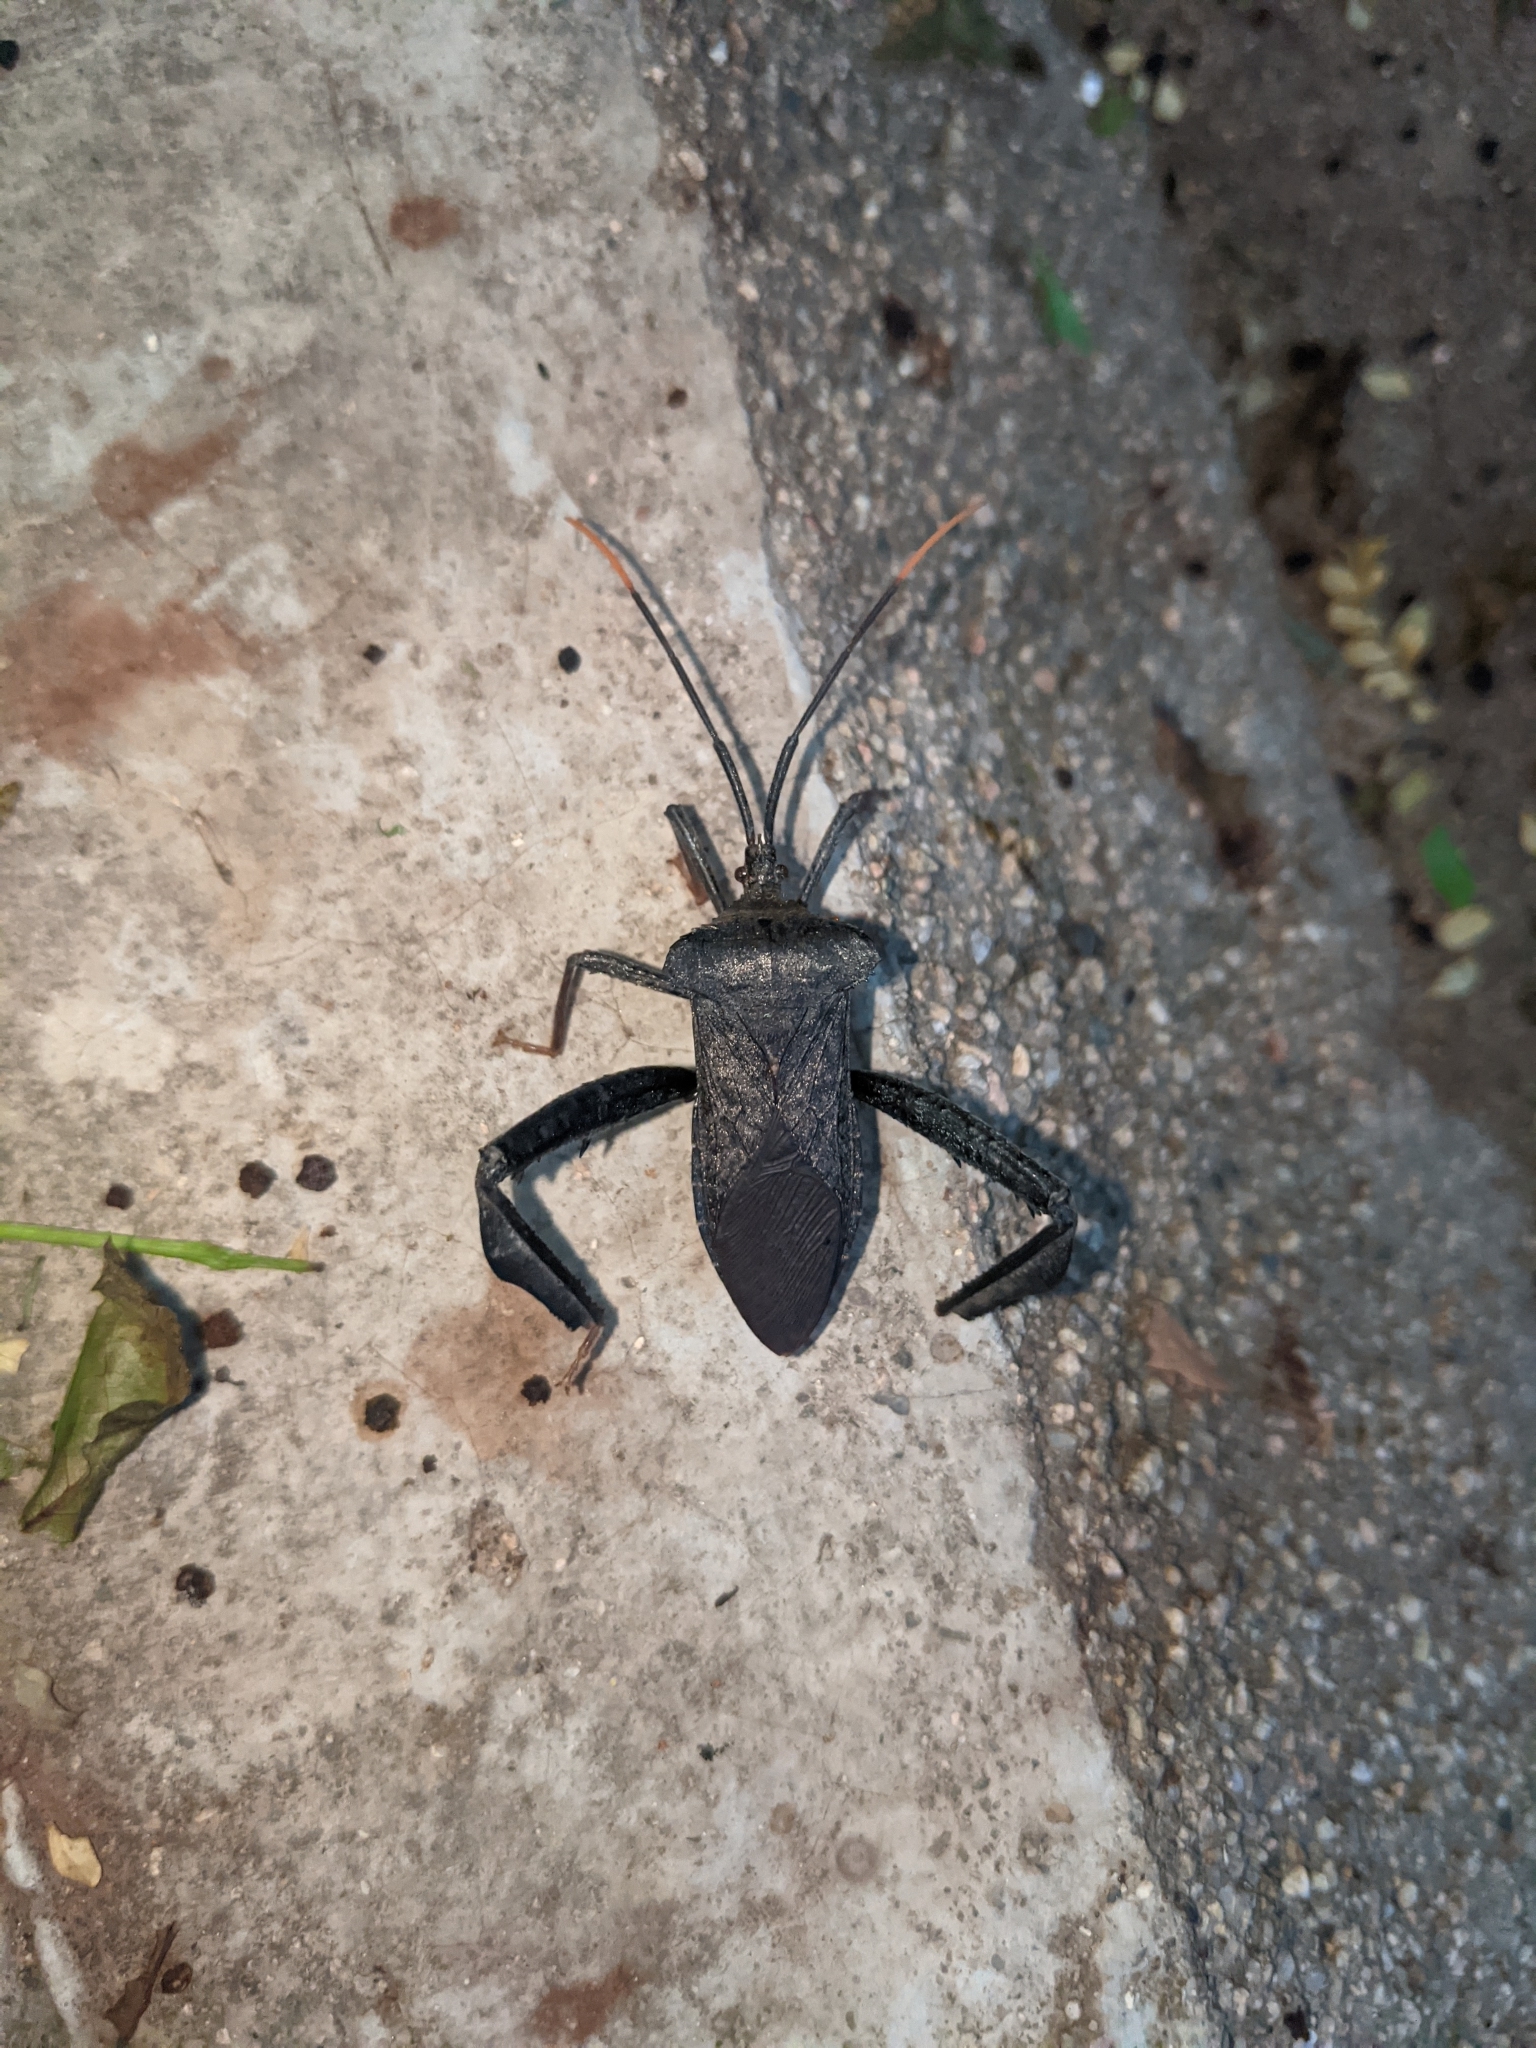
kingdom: Animalia
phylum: Arthropoda
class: Insecta
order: Hemiptera
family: Coreidae
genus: Acanthocephala
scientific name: Acanthocephala alata
